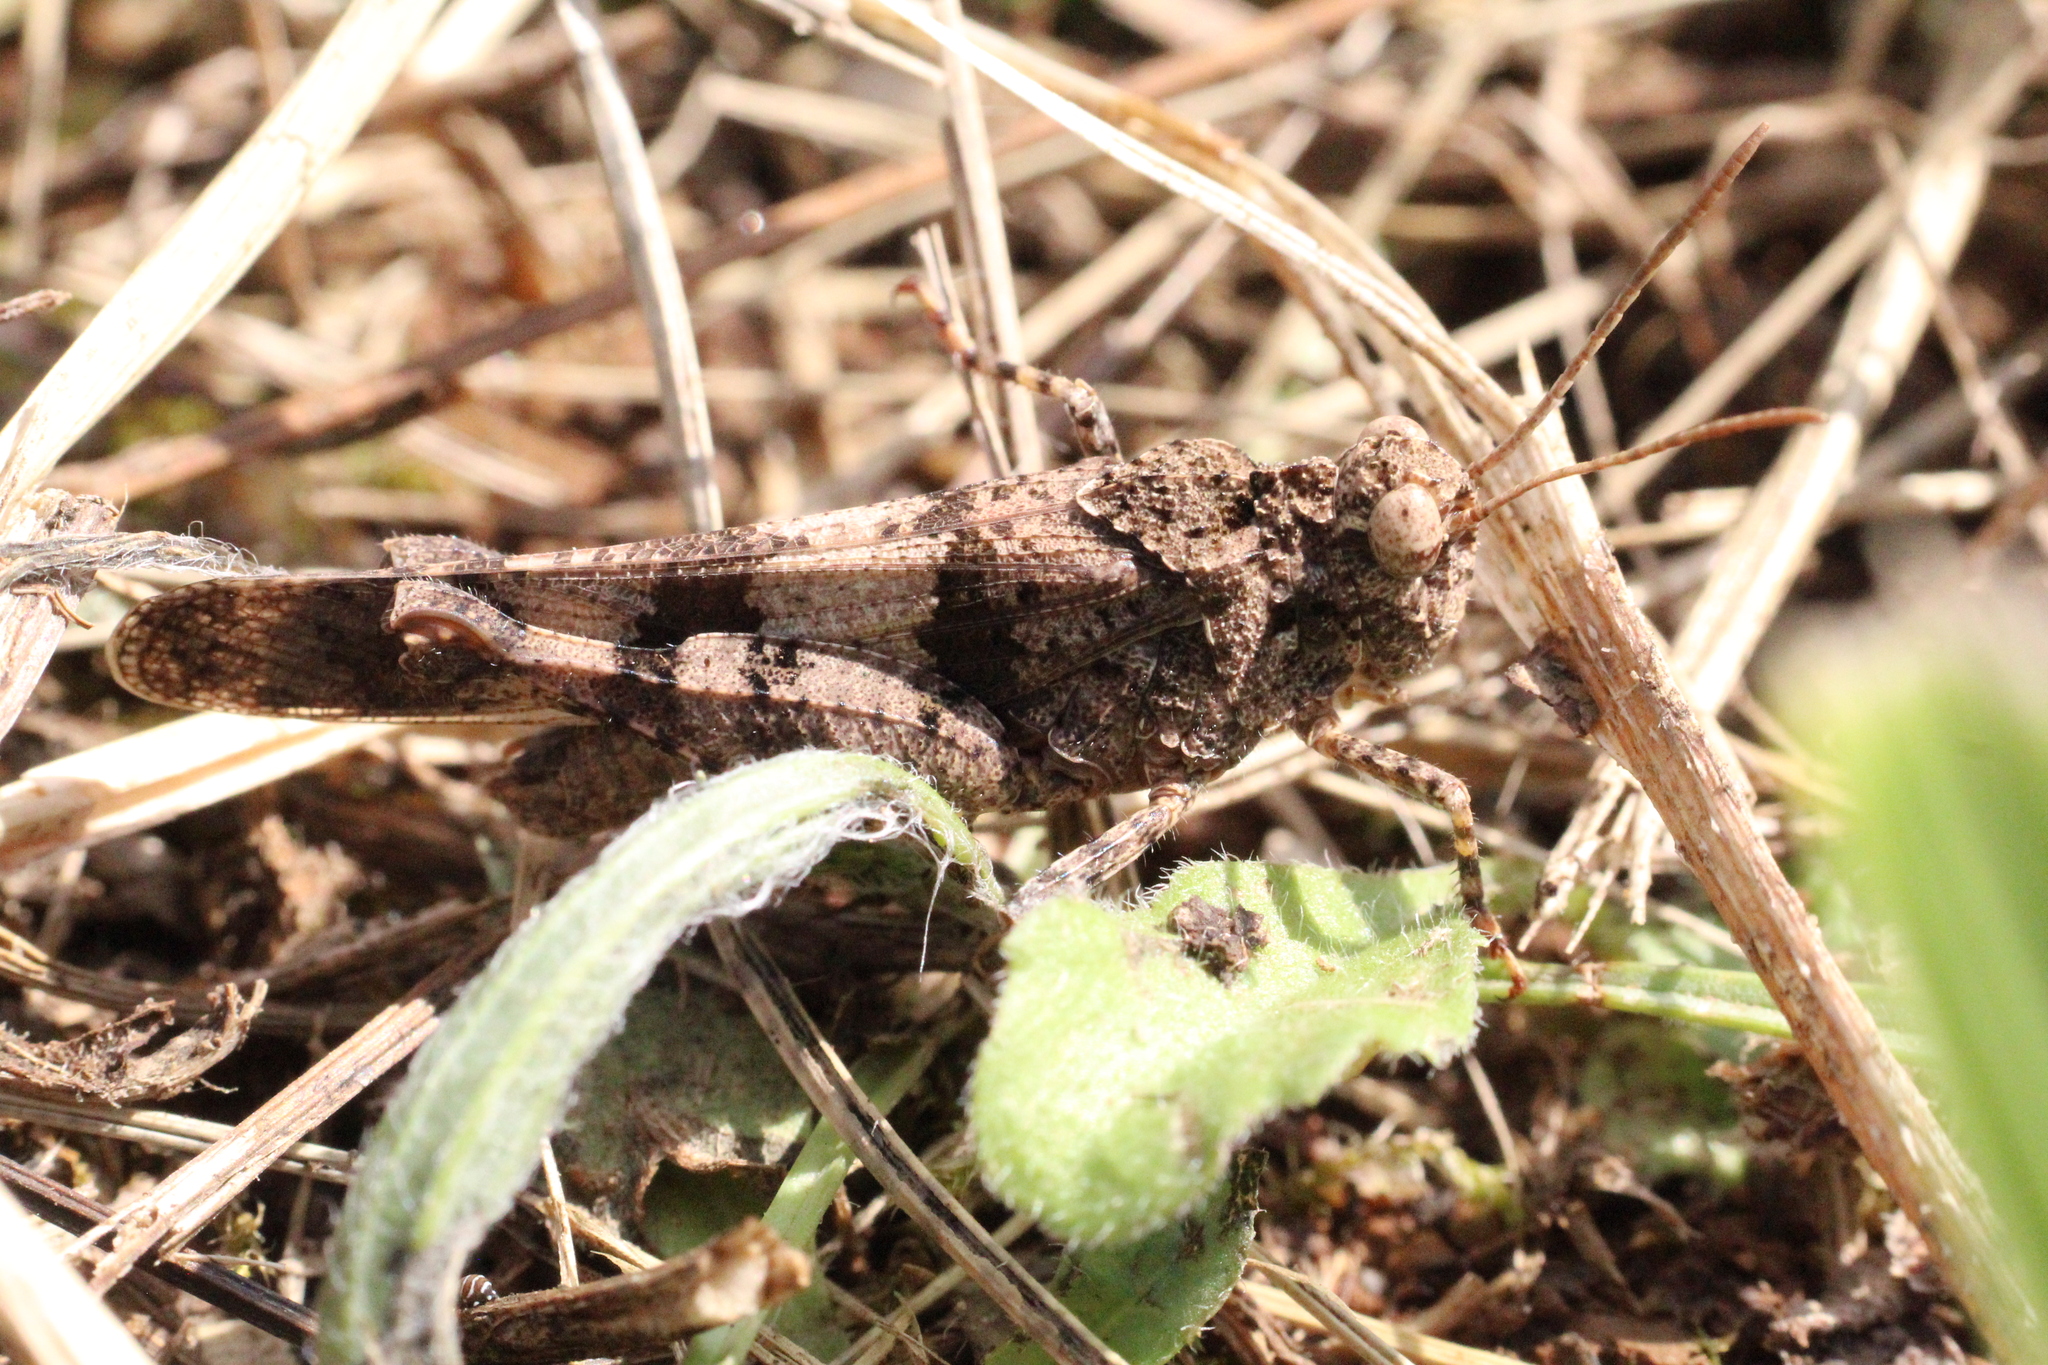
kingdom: Animalia
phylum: Arthropoda
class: Insecta
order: Orthoptera
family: Acrididae
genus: Oedipoda
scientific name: Oedipoda caerulescens
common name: Blue-winged grasshopper
